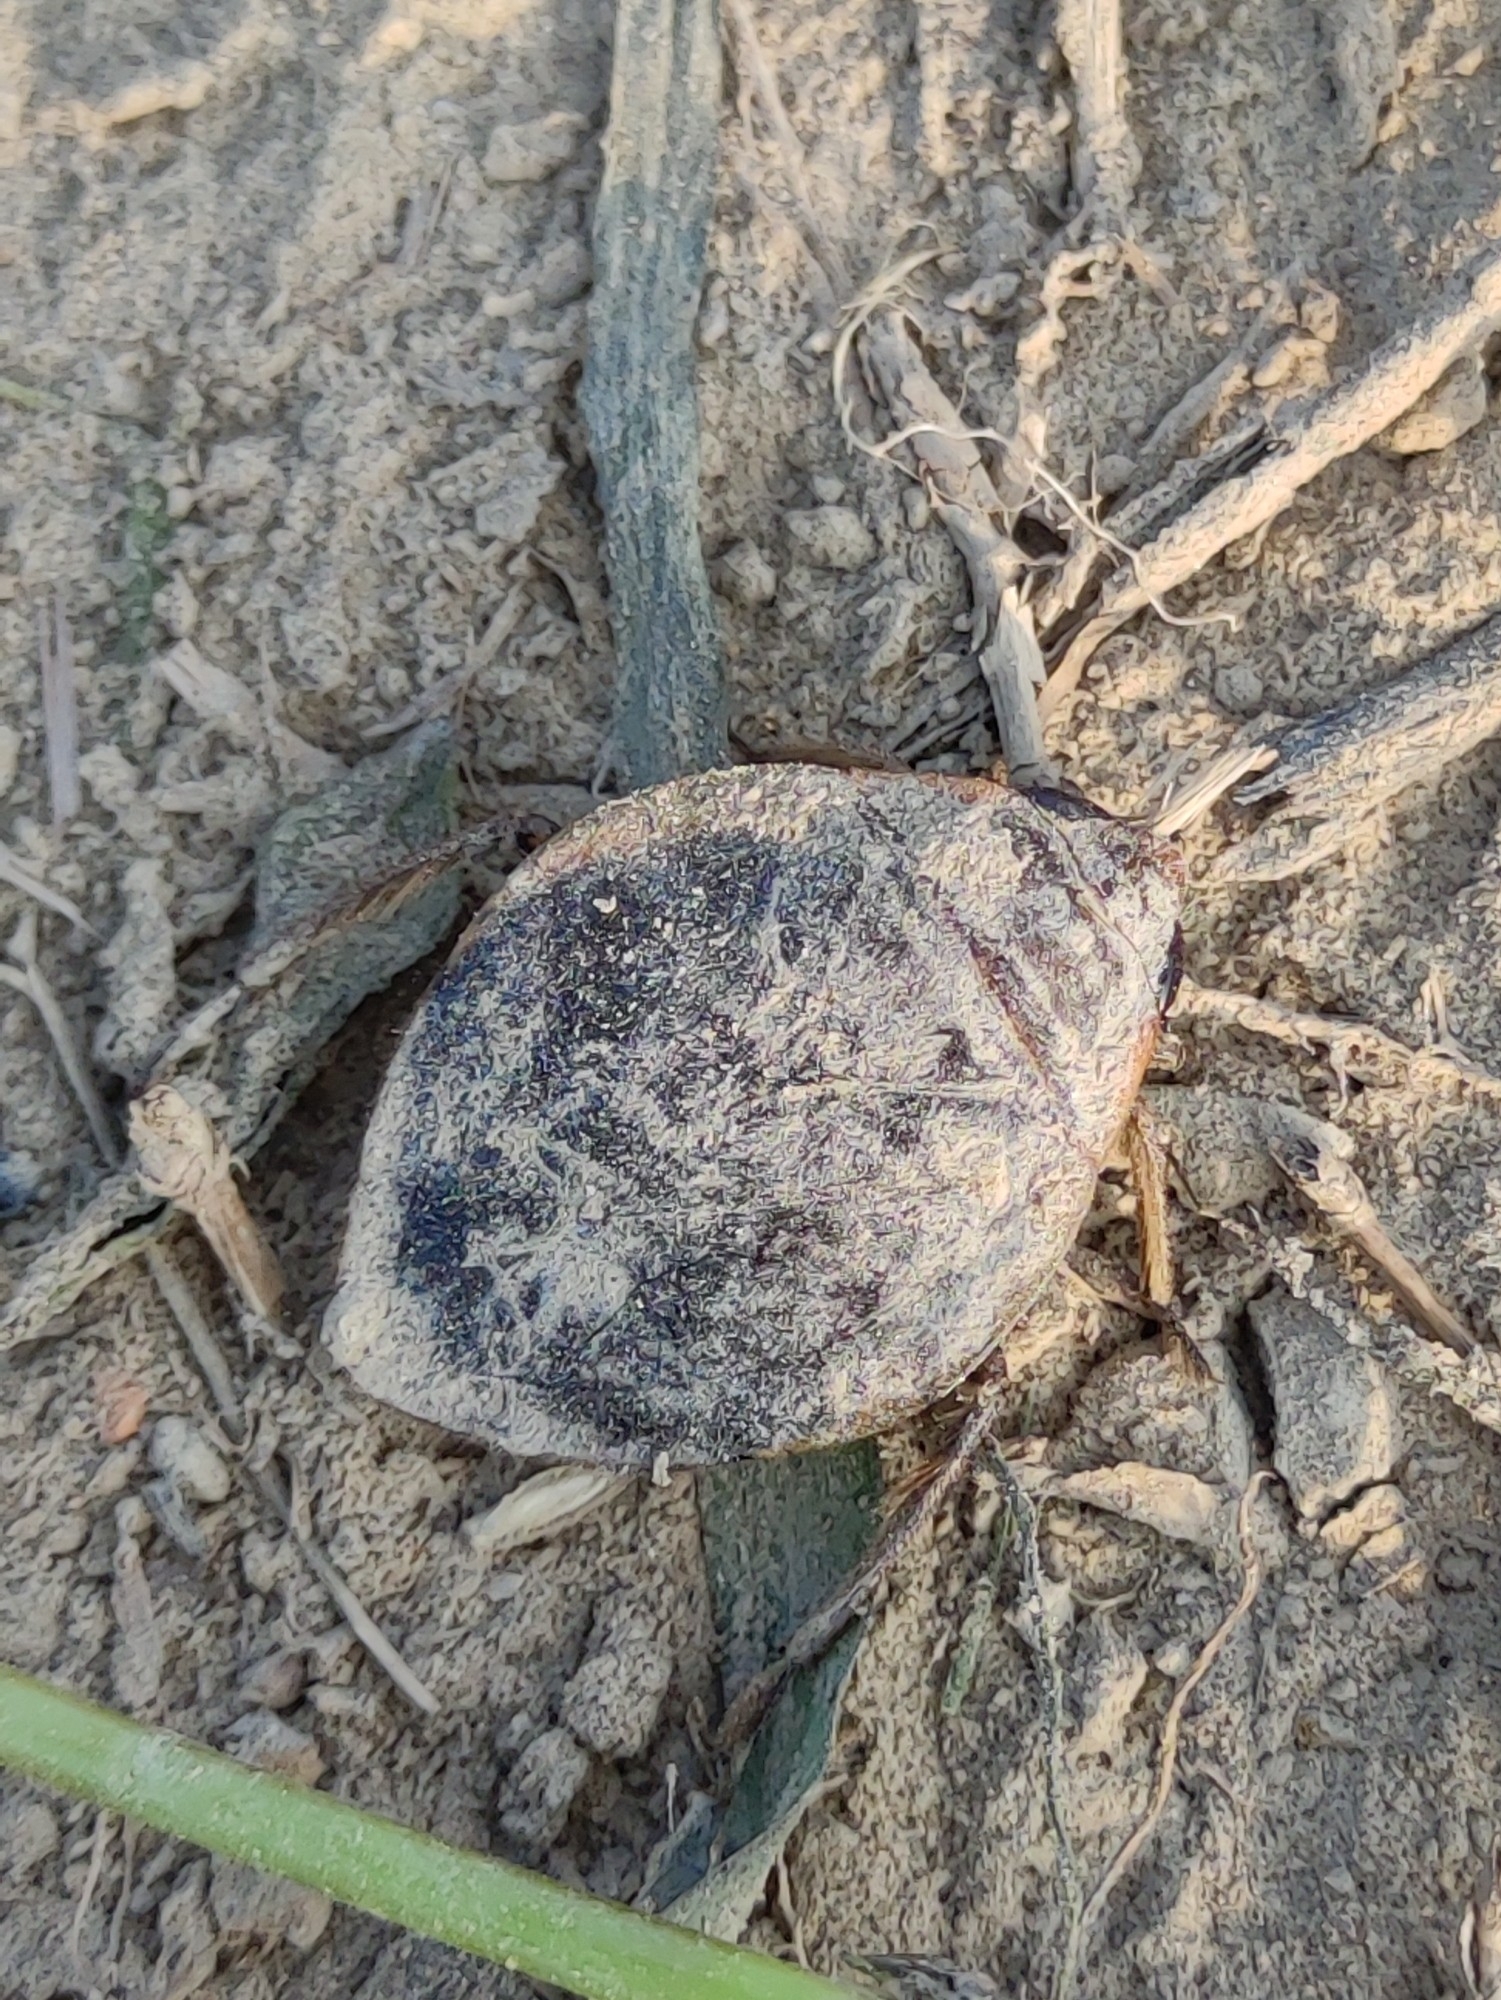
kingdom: Animalia
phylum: Arthropoda
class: Insecta
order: Hemiptera
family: Belostomatidae
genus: Diplonychus
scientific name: Diplonychus annulatus
